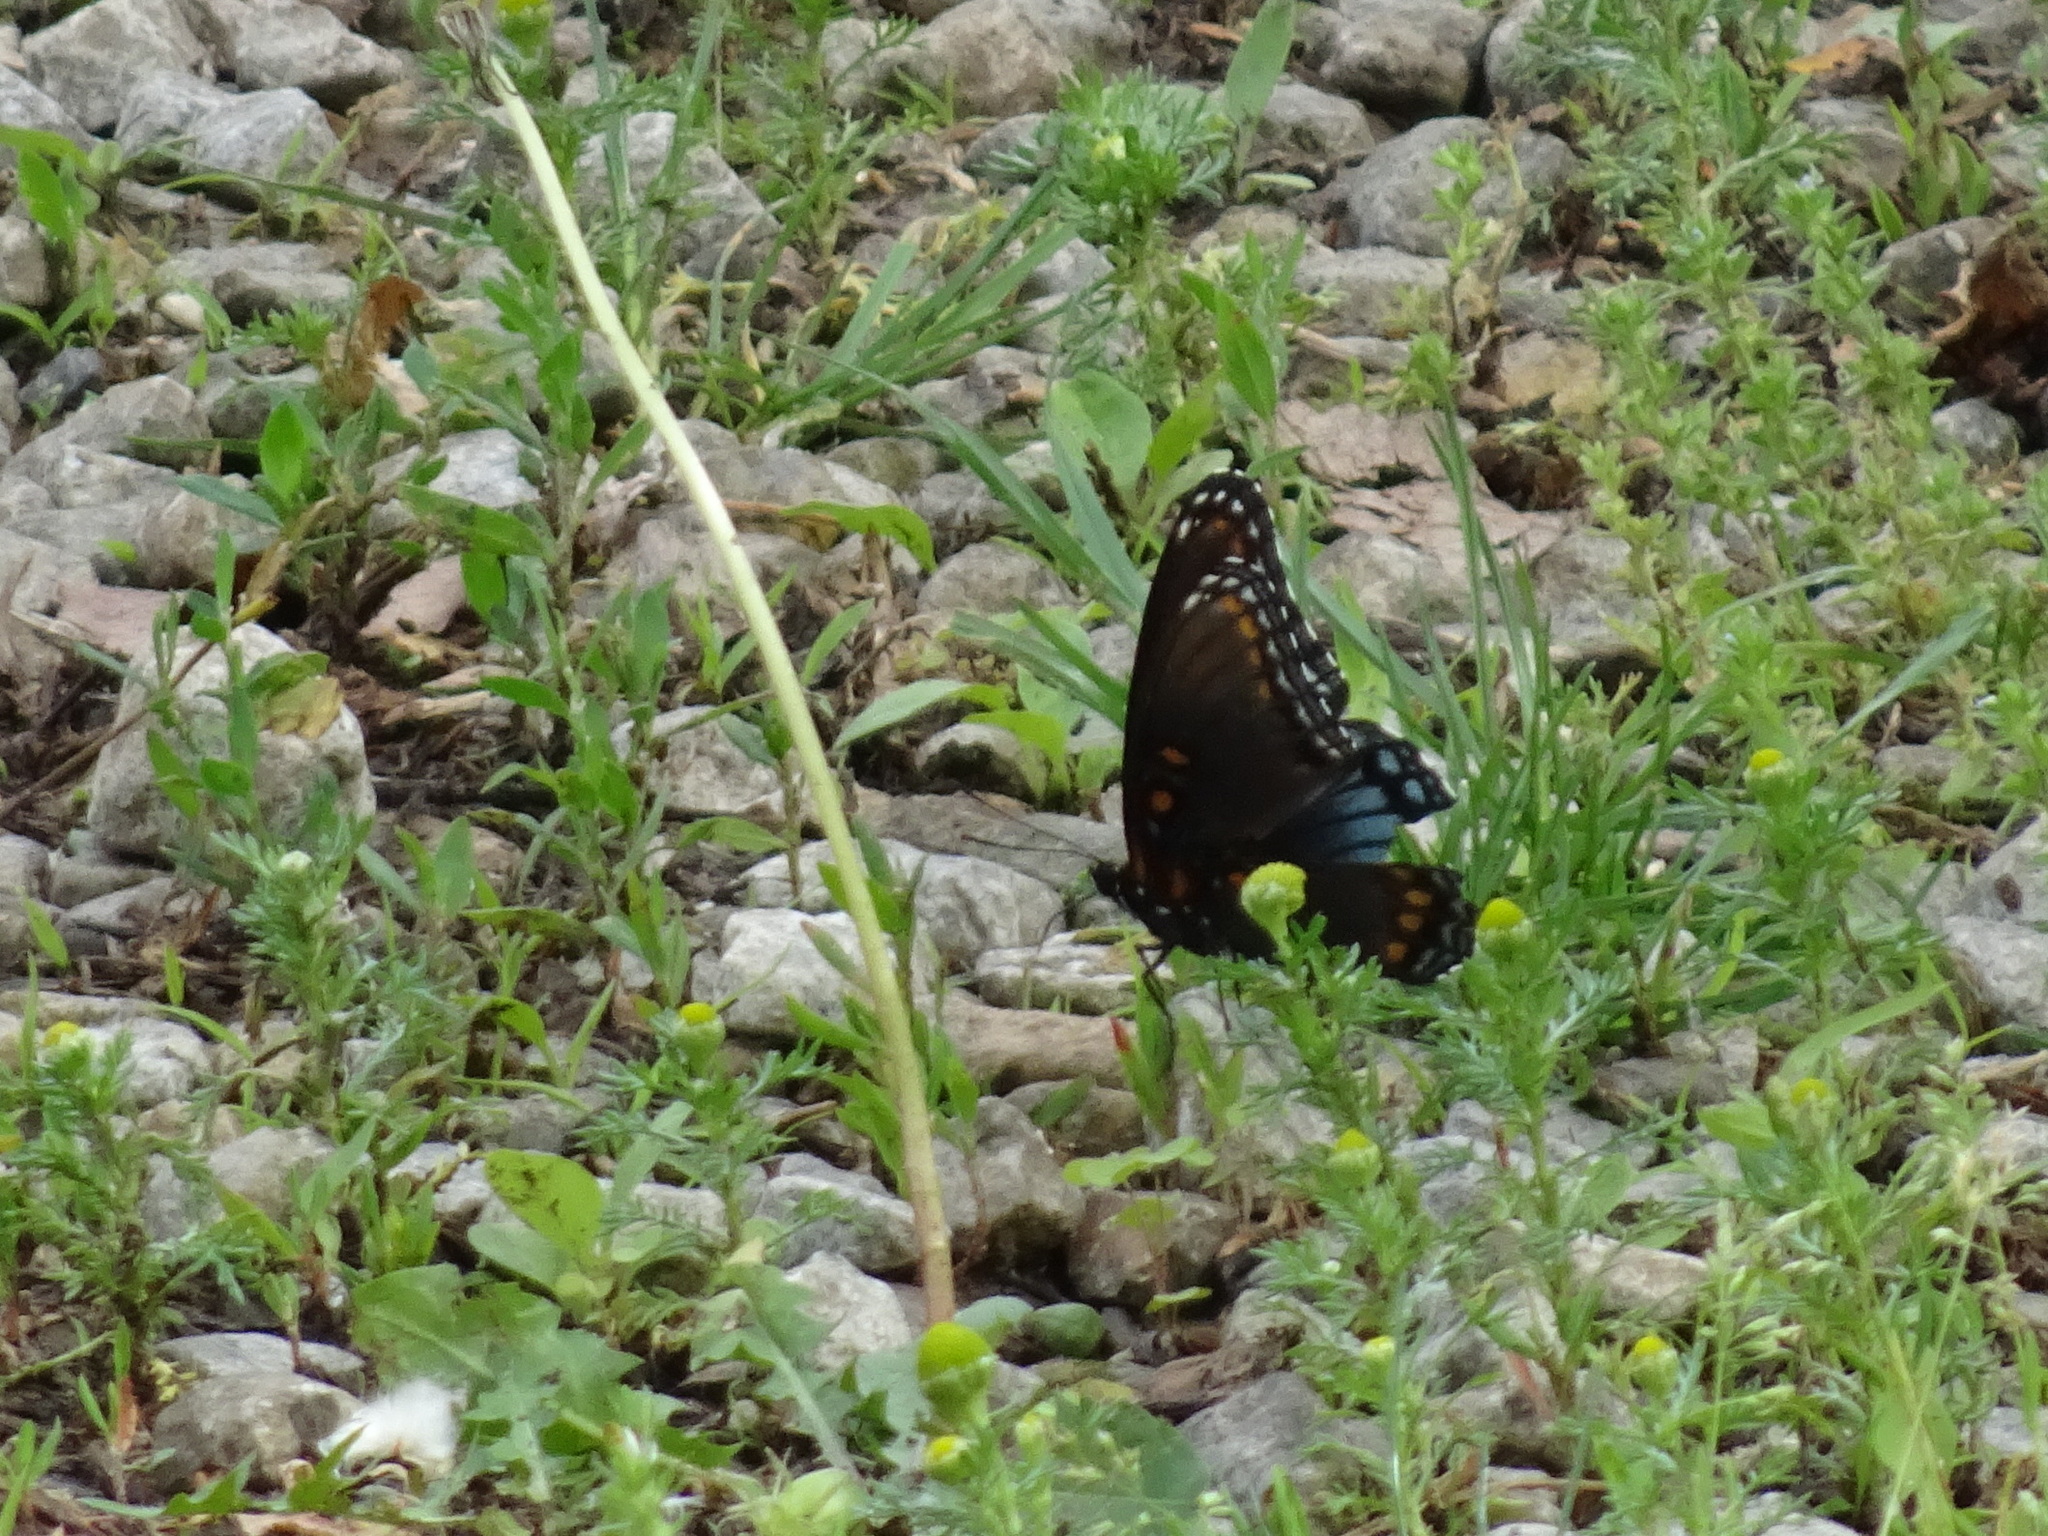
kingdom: Animalia
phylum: Arthropoda
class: Insecta
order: Lepidoptera
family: Nymphalidae
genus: Limenitis
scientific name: Limenitis astyanax
